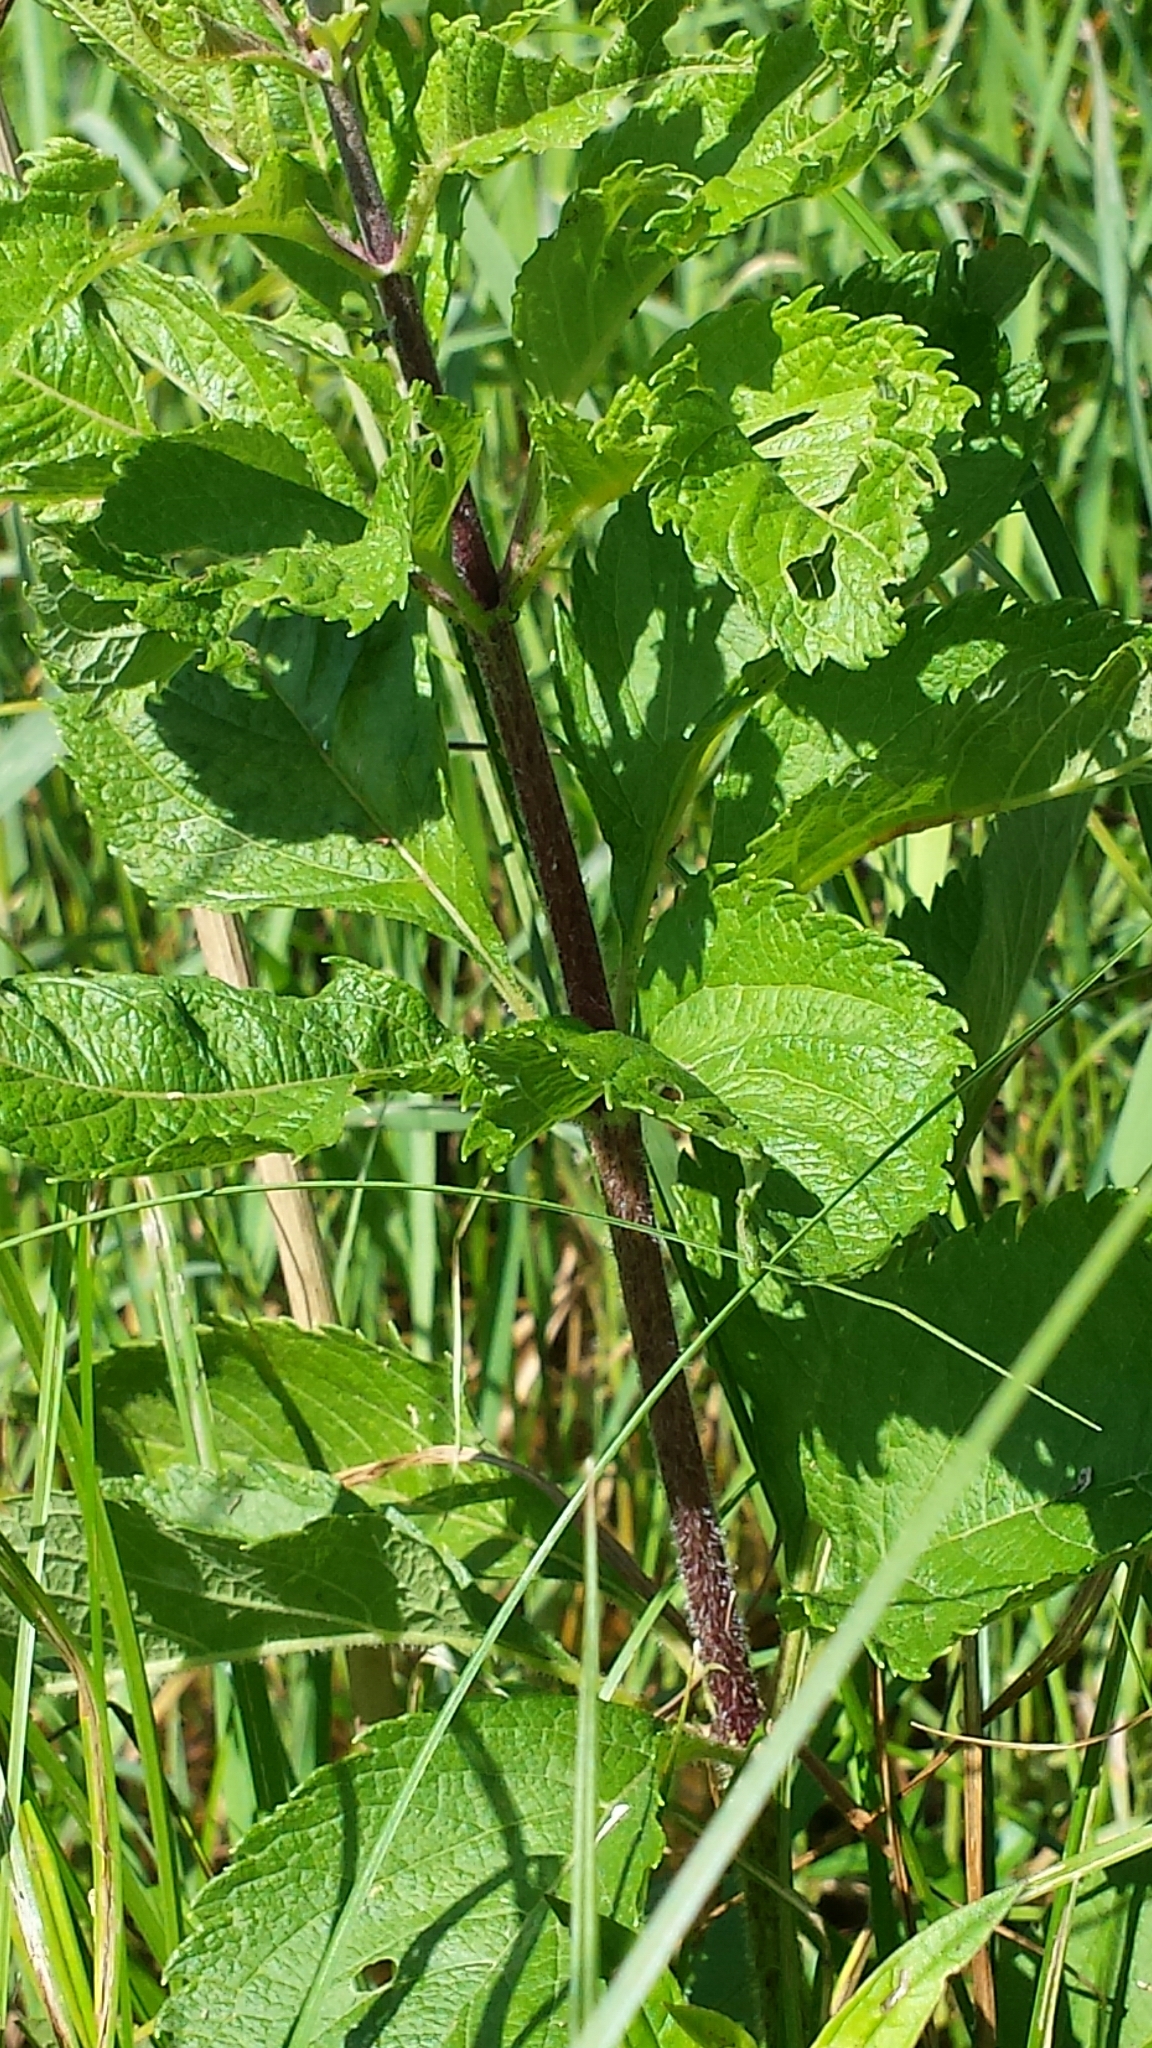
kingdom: Plantae
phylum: Tracheophyta
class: Magnoliopsida
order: Asterales
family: Asteraceae
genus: Eutrochium
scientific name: Eutrochium maculatum
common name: Spotted joe pye weed
